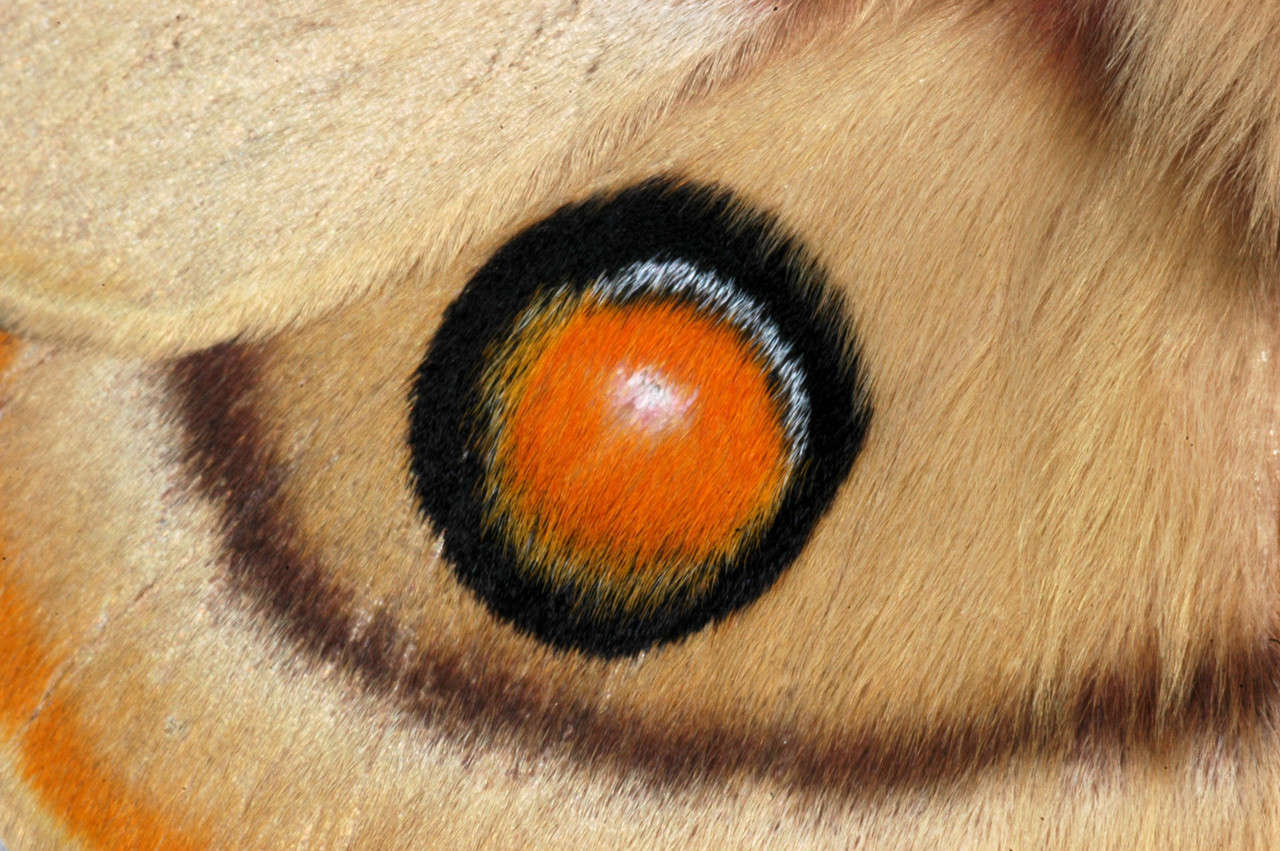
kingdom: Animalia
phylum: Arthropoda
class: Insecta
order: Lepidoptera
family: Saturniidae
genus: Opodiphthera
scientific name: Opodiphthera
